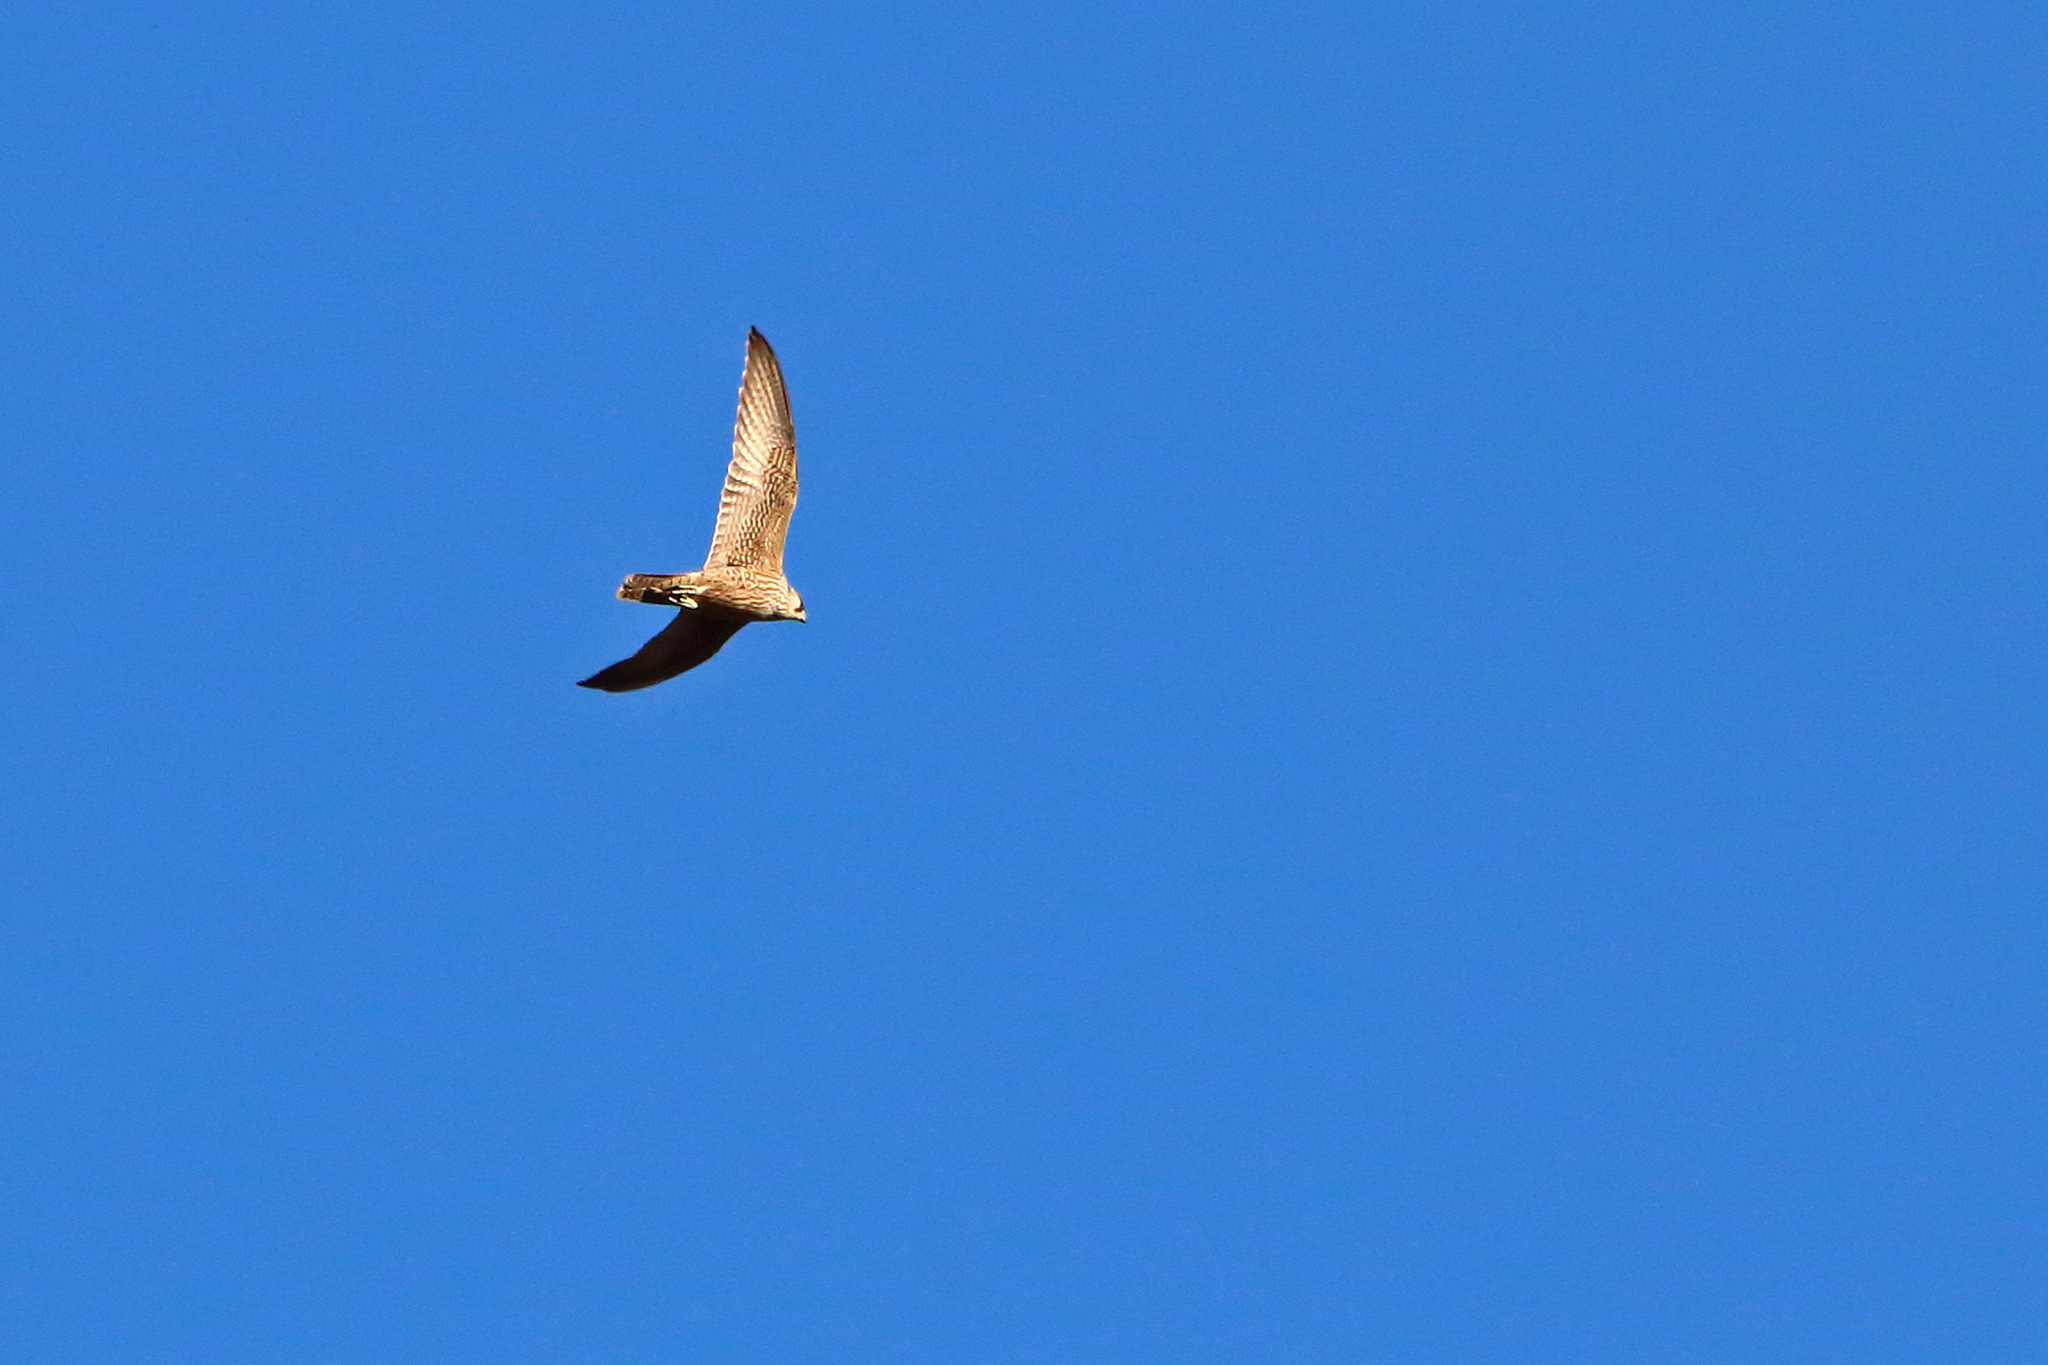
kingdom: Animalia
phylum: Chordata
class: Aves
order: Falconiformes
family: Falconidae
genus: Falco
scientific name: Falco peregrinus
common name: Peregrine falcon
